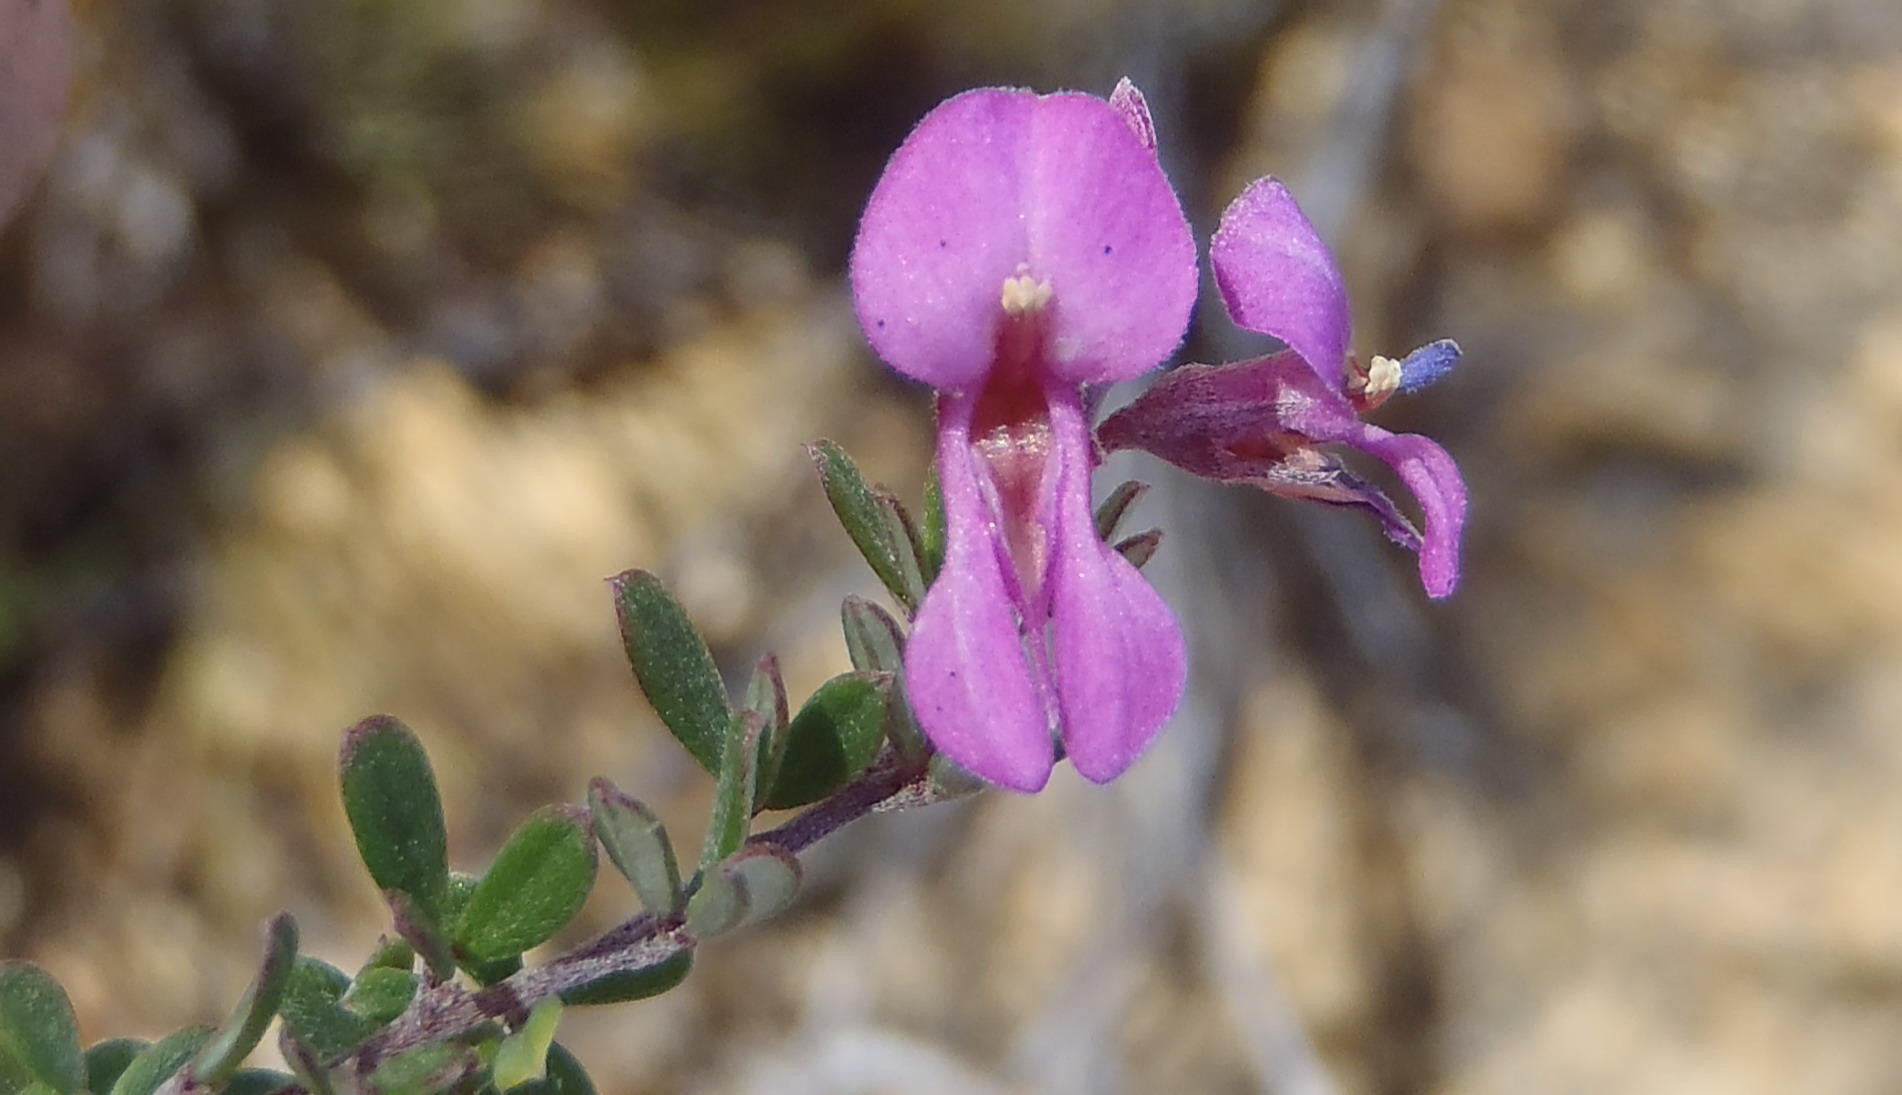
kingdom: Plantae
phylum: Tracheophyta
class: Magnoliopsida
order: Fabales
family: Fabaceae
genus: Indigofera
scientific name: Indigofera
